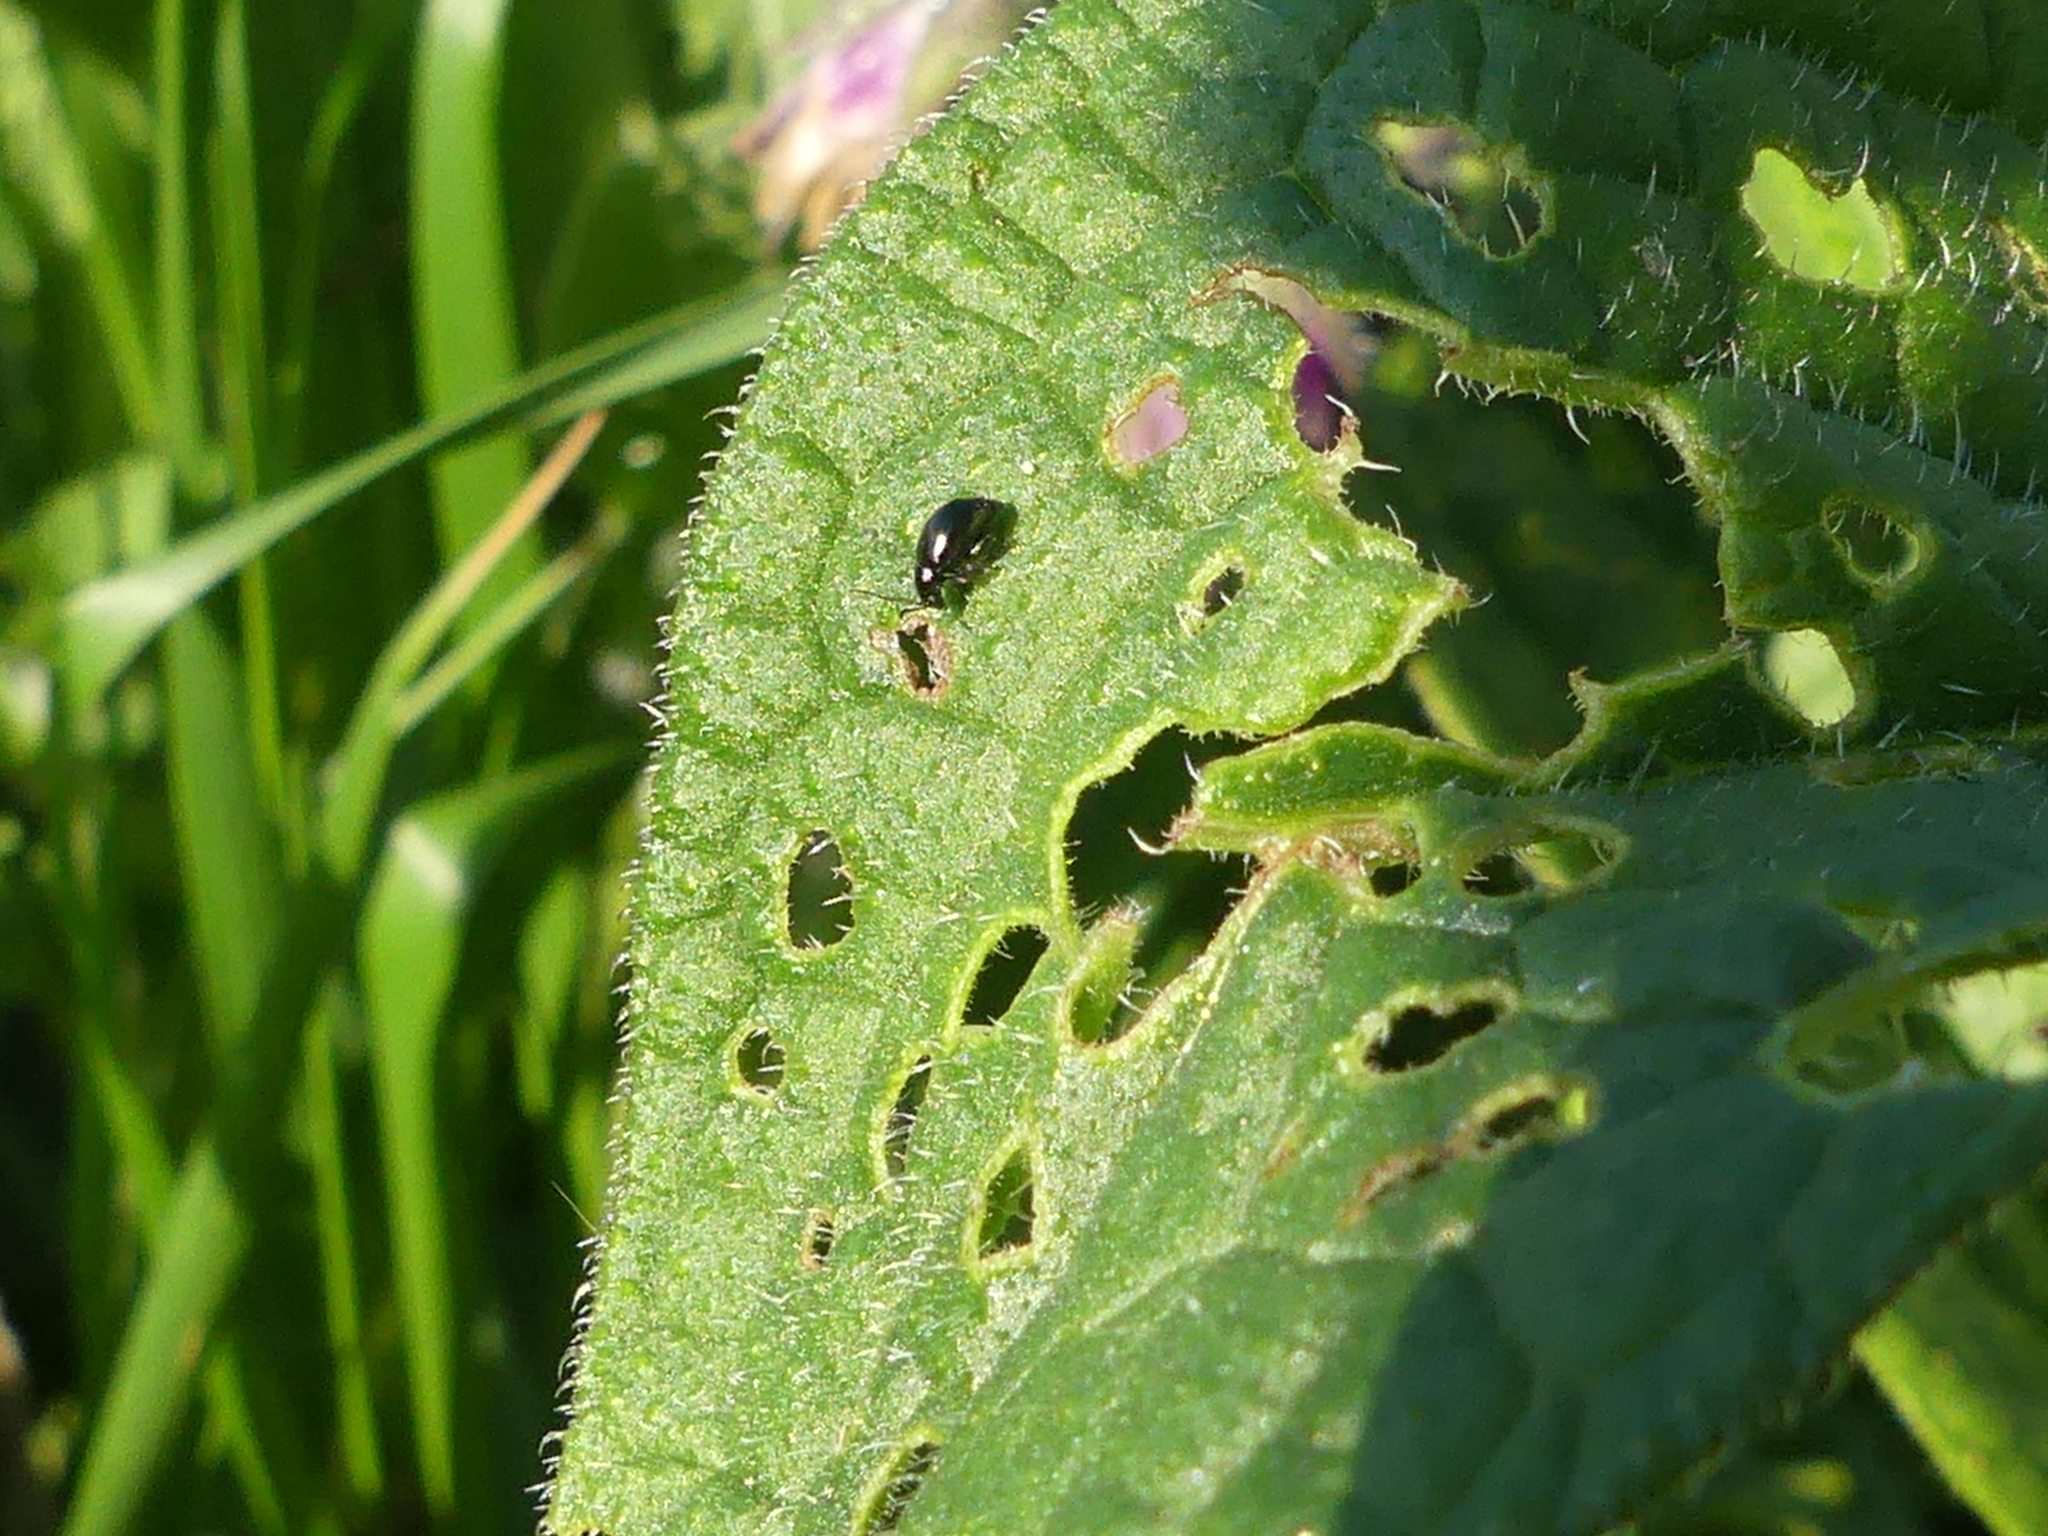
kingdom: Animalia
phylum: Arthropoda
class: Insecta
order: Coleoptera
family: Chrysomelidae
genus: Longitarsus
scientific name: Longitarsus anchusae
